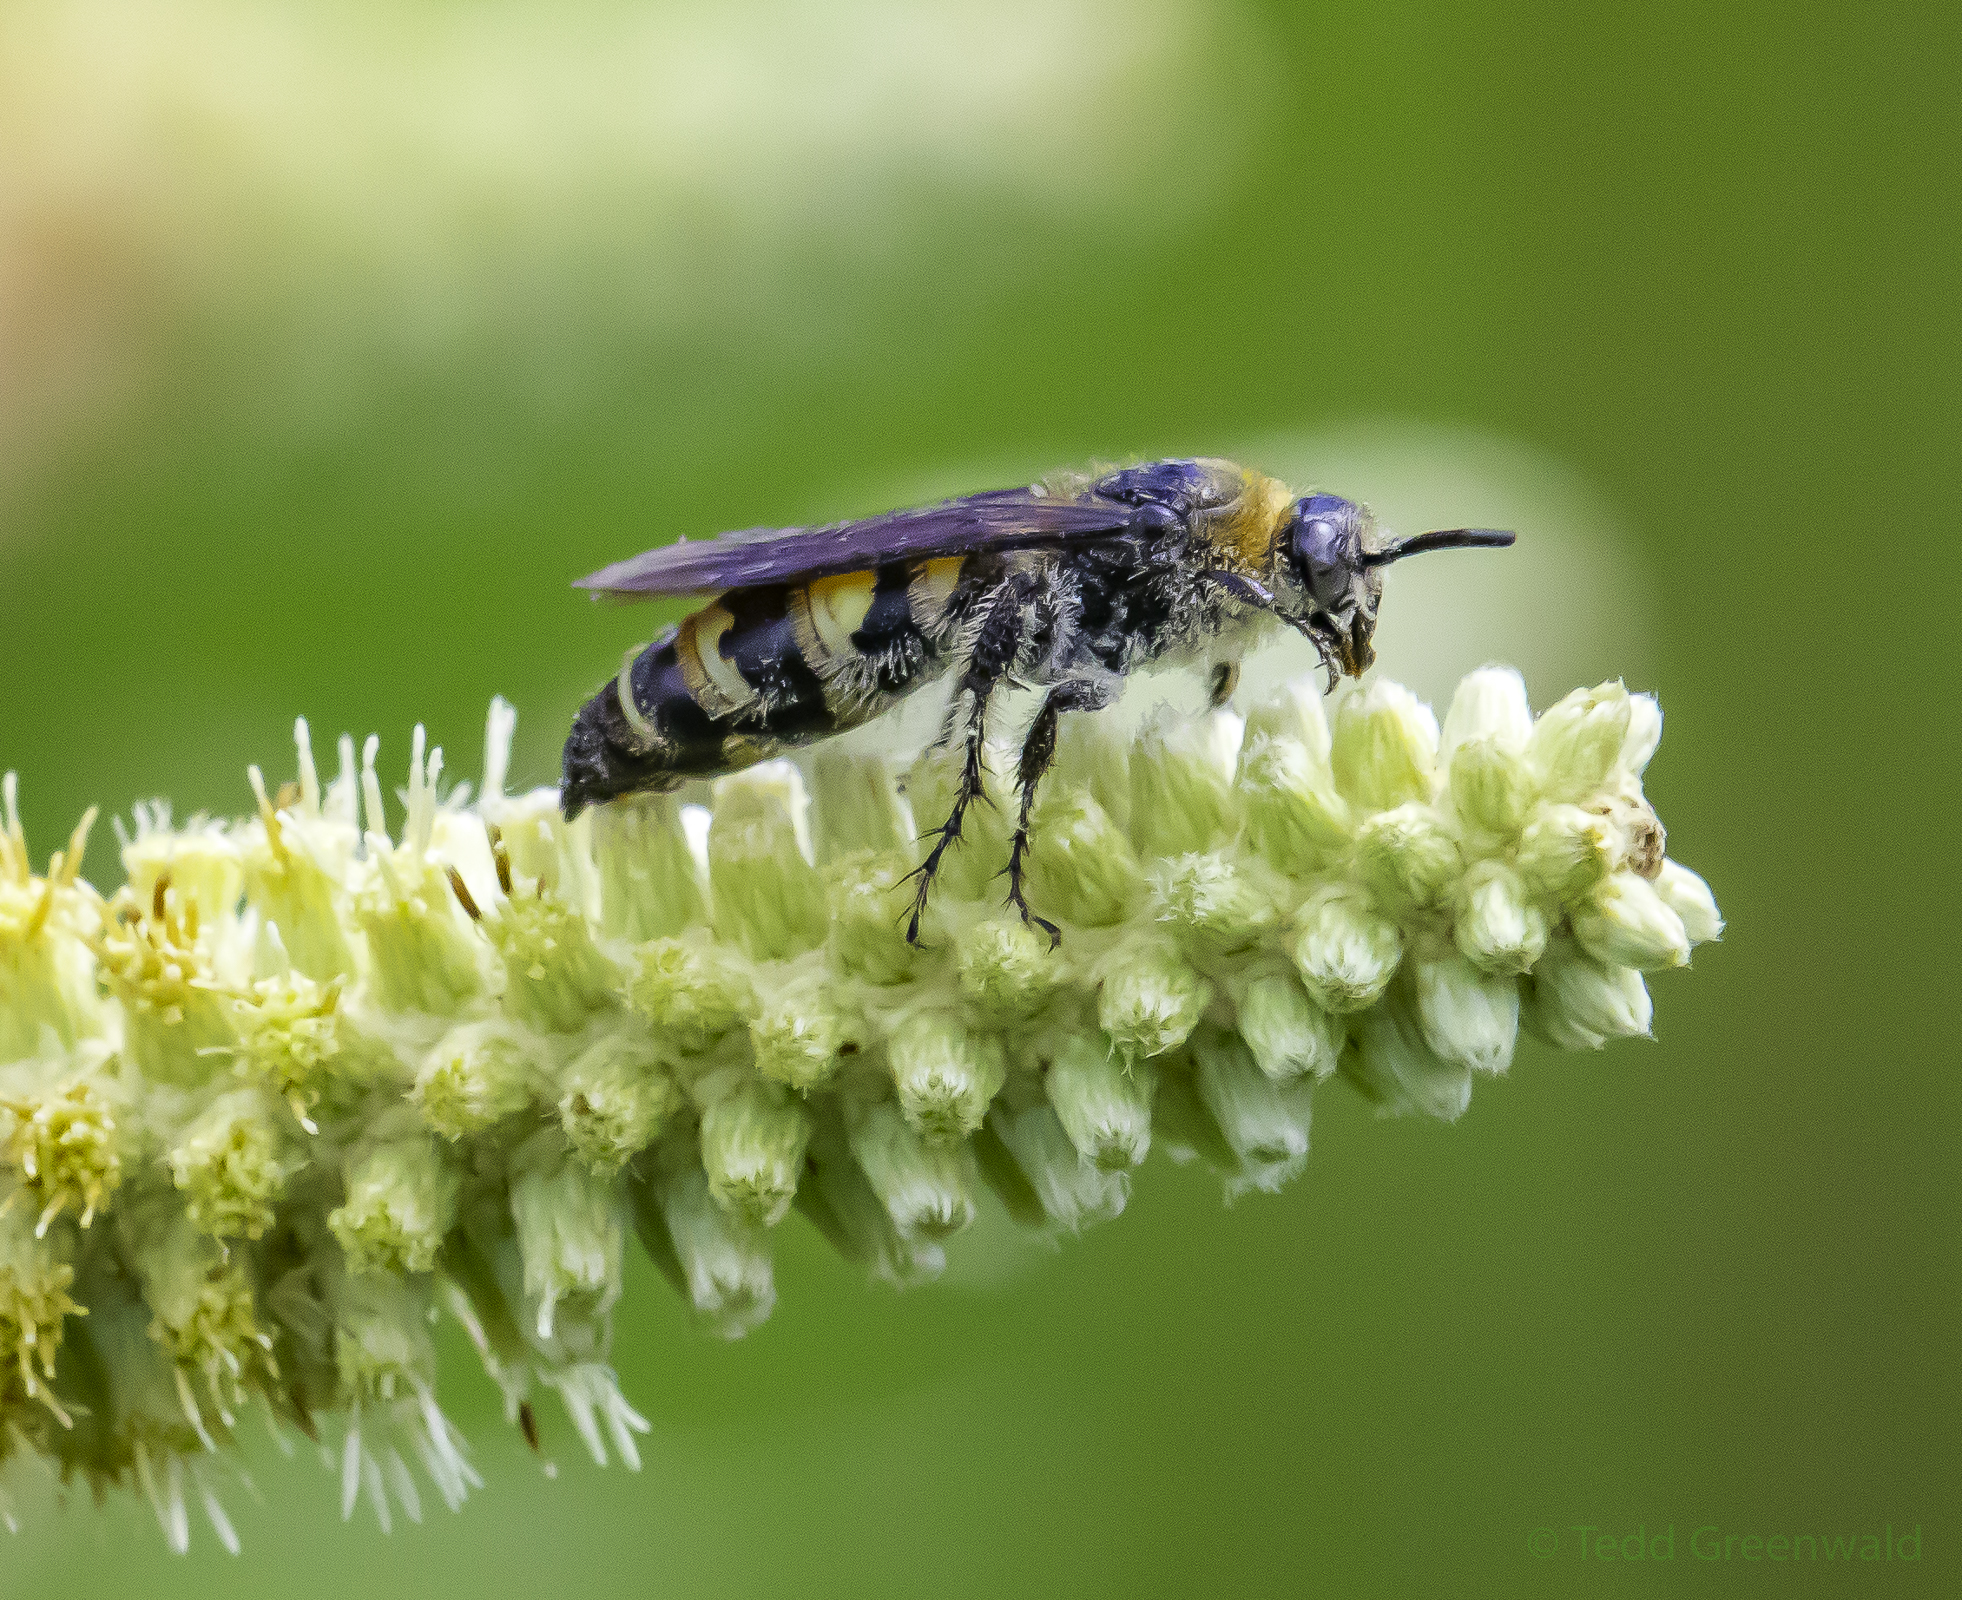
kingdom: Animalia
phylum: Arthropoda
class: Insecta
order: Hymenoptera
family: Scoliidae
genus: Dielis
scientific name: Dielis
